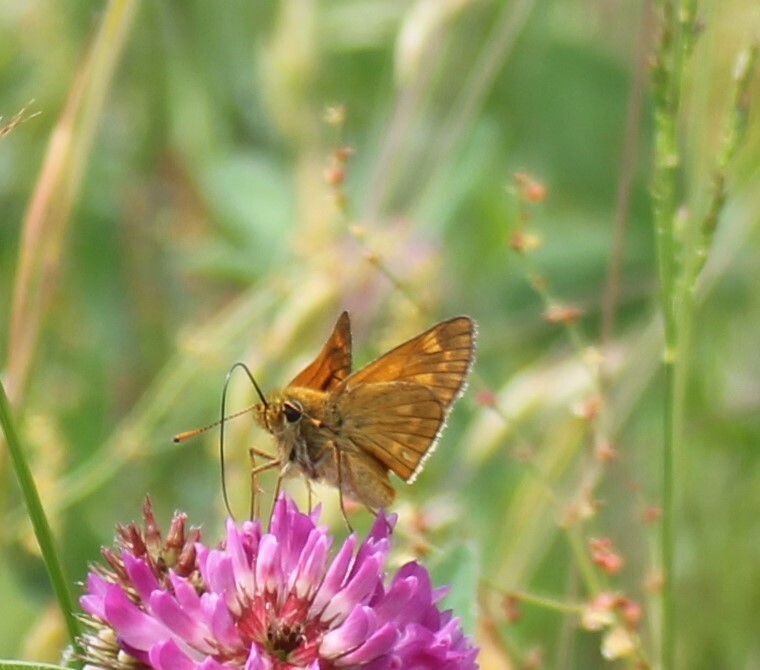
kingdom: Animalia
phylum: Arthropoda
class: Insecta
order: Lepidoptera
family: Hesperiidae
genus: Ochlodes
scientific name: Ochlodes venata
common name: Large skipper
